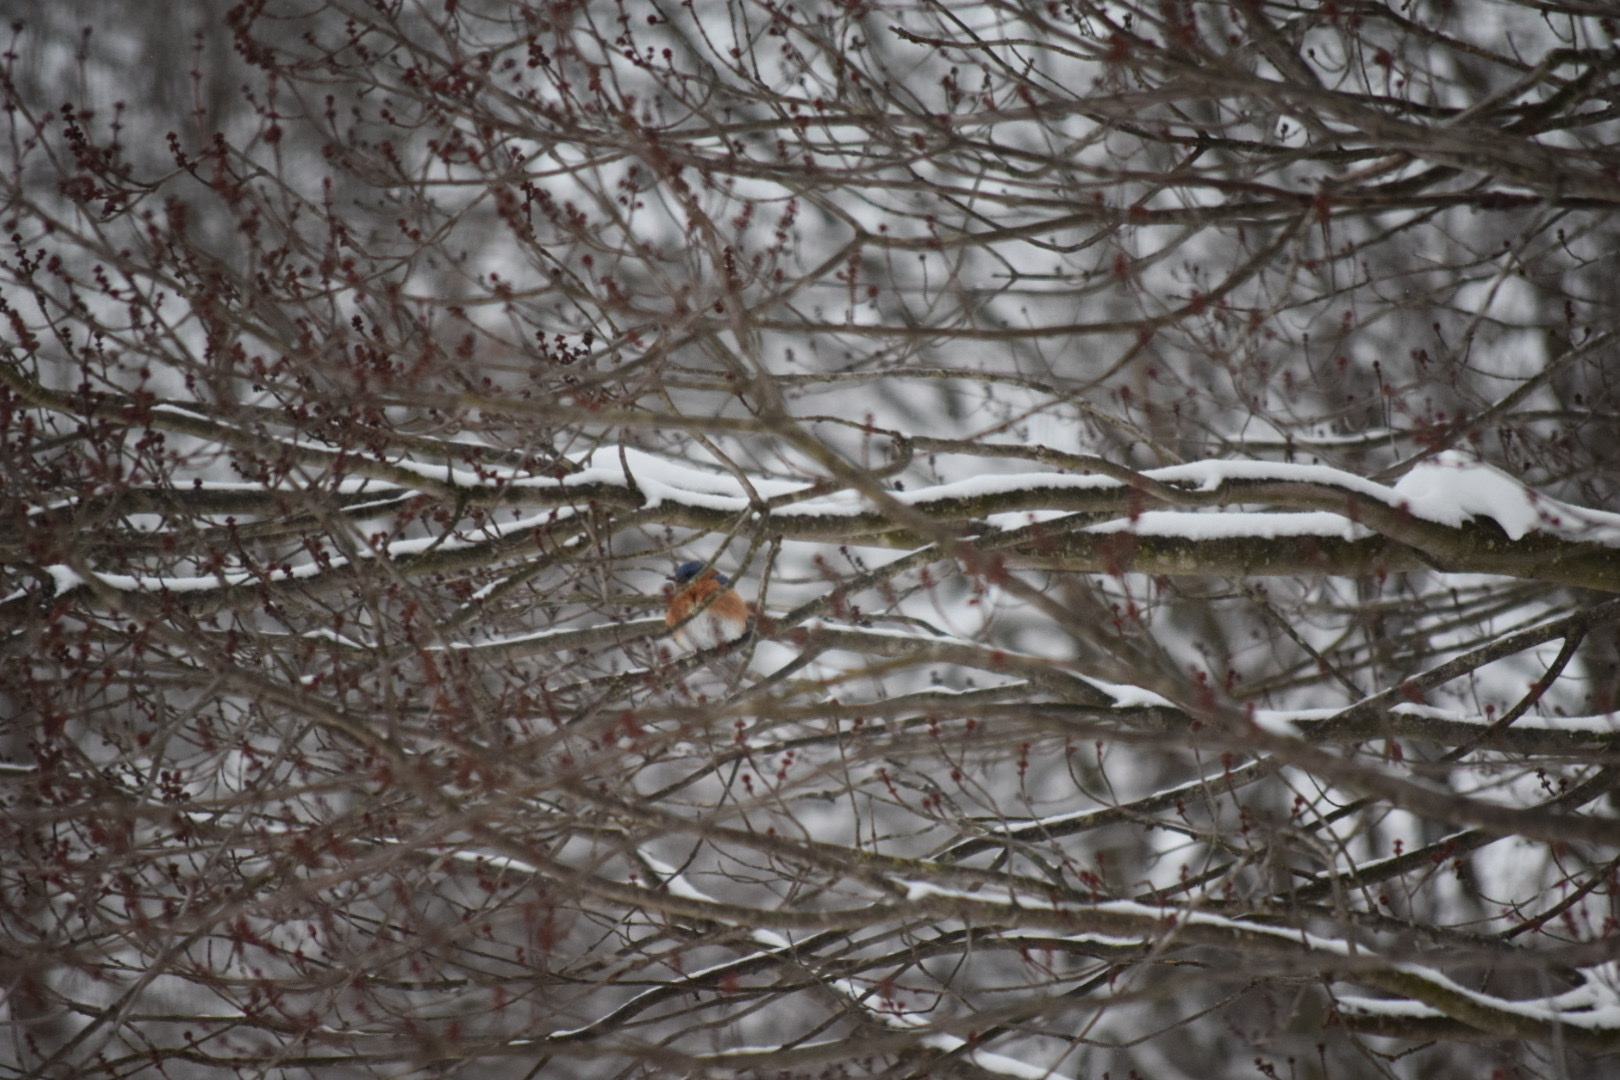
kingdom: Animalia
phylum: Chordata
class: Aves
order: Passeriformes
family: Turdidae
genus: Sialia
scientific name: Sialia sialis
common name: Eastern bluebird
